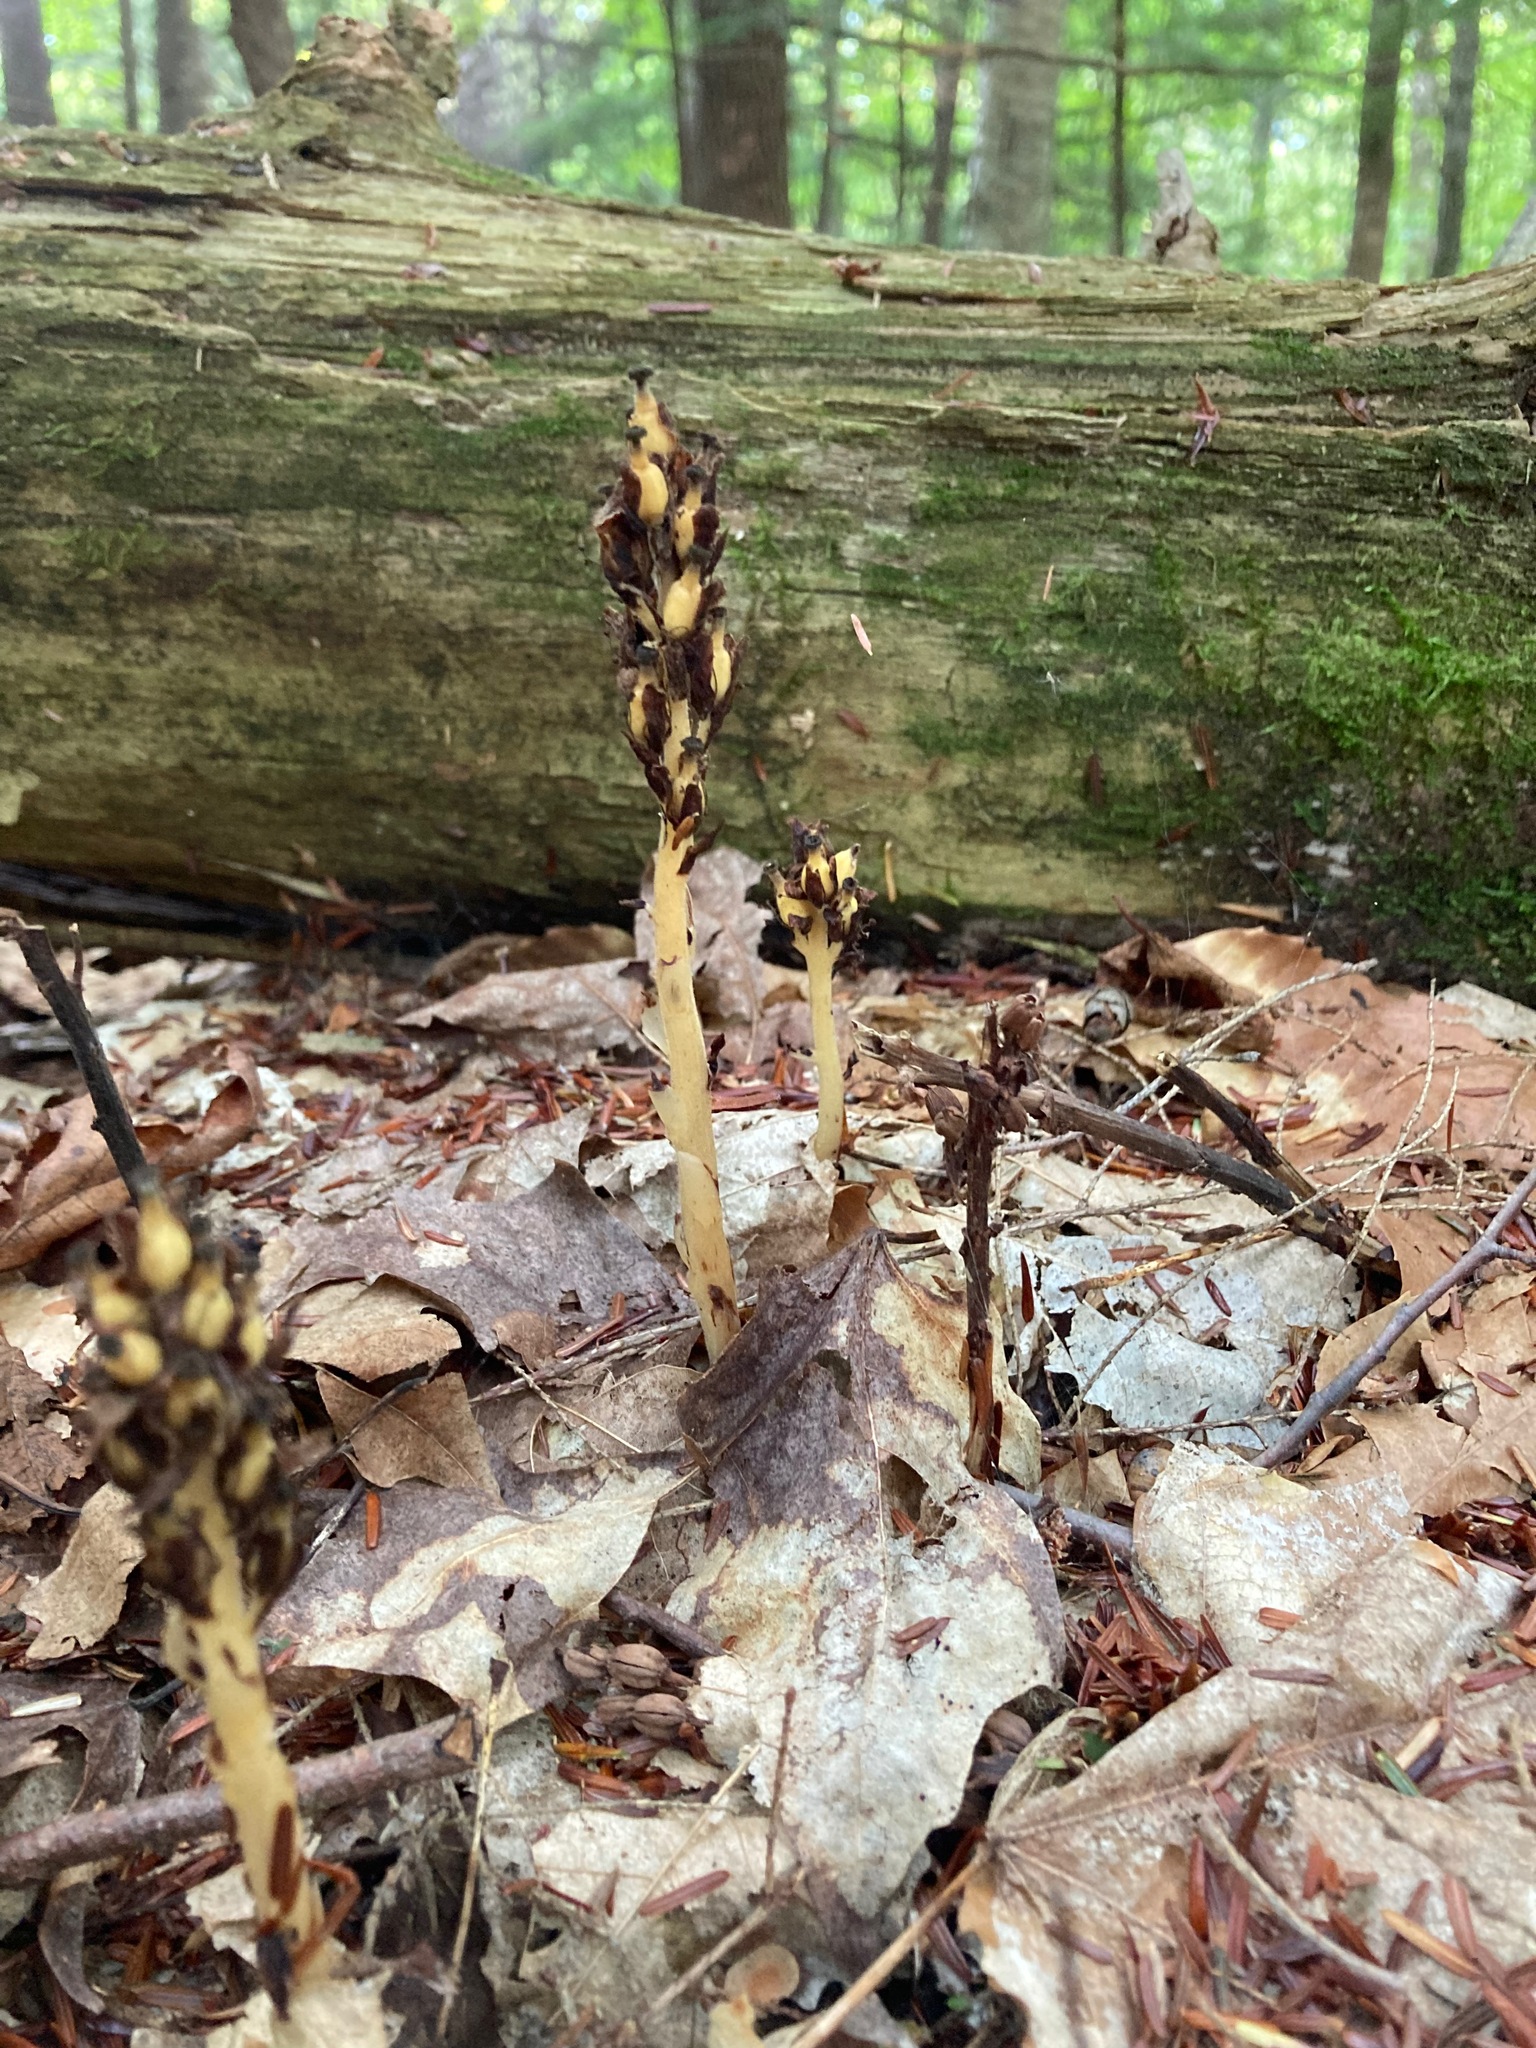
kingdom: Plantae
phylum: Tracheophyta
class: Magnoliopsida
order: Ericales
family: Ericaceae
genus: Hypopitys
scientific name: Hypopitys monotropa
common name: Yellow bird's-nest
